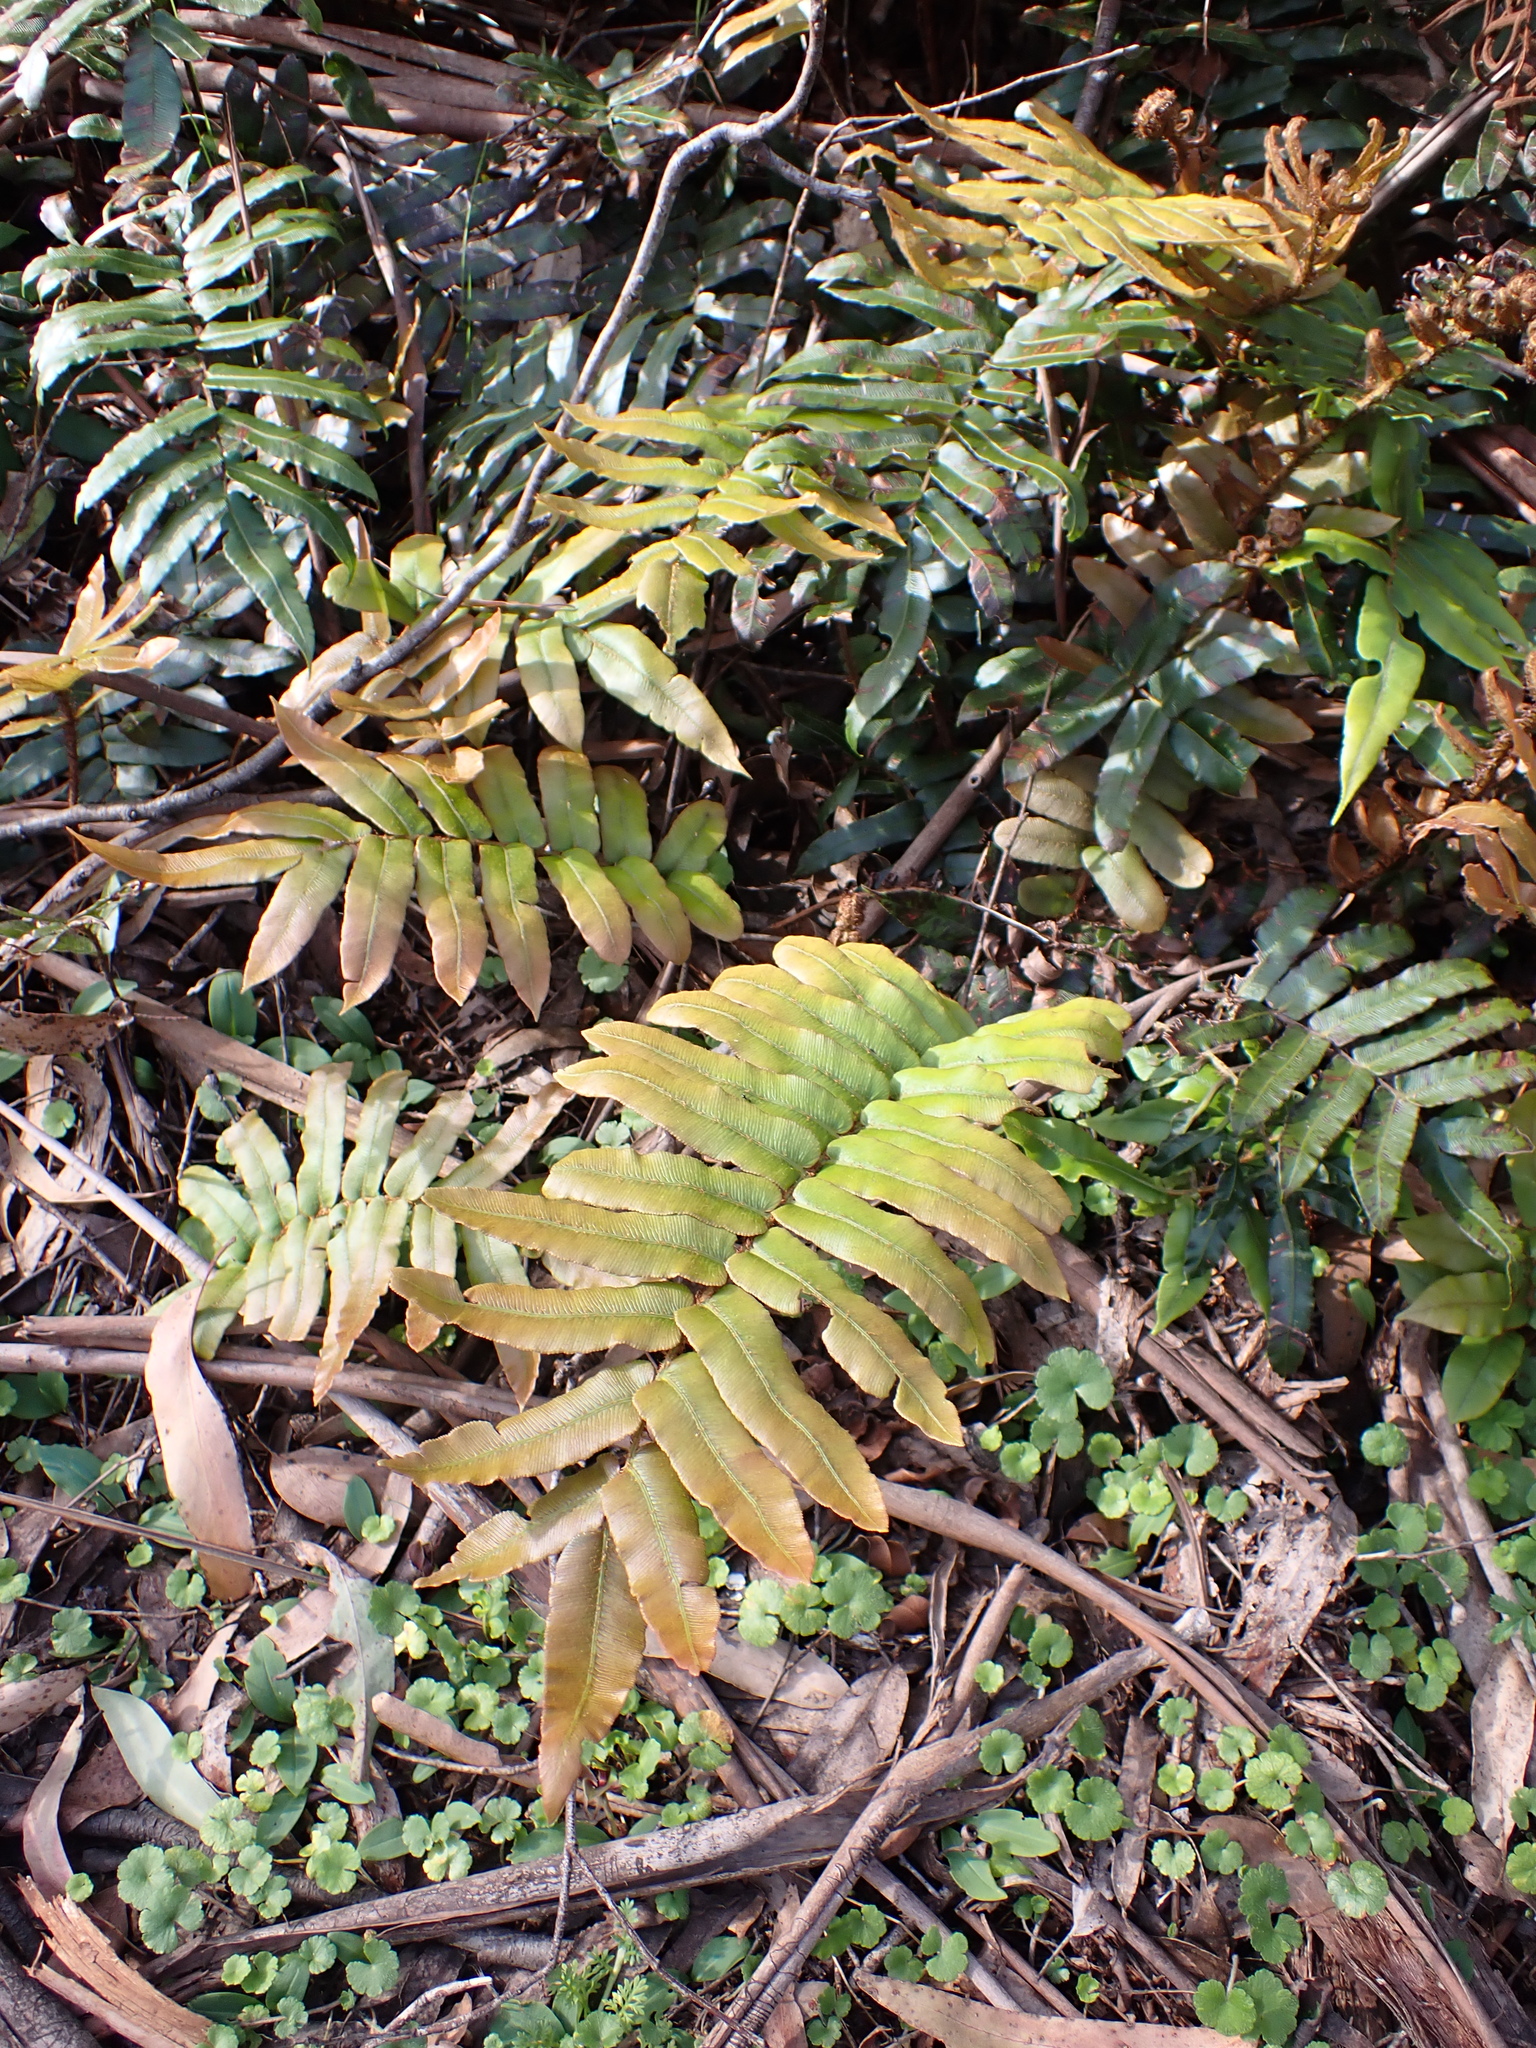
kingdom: Plantae
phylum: Tracheophyta
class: Polypodiopsida
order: Polypodiales
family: Blechnaceae
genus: Parablechnum
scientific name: Parablechnum wattsii
